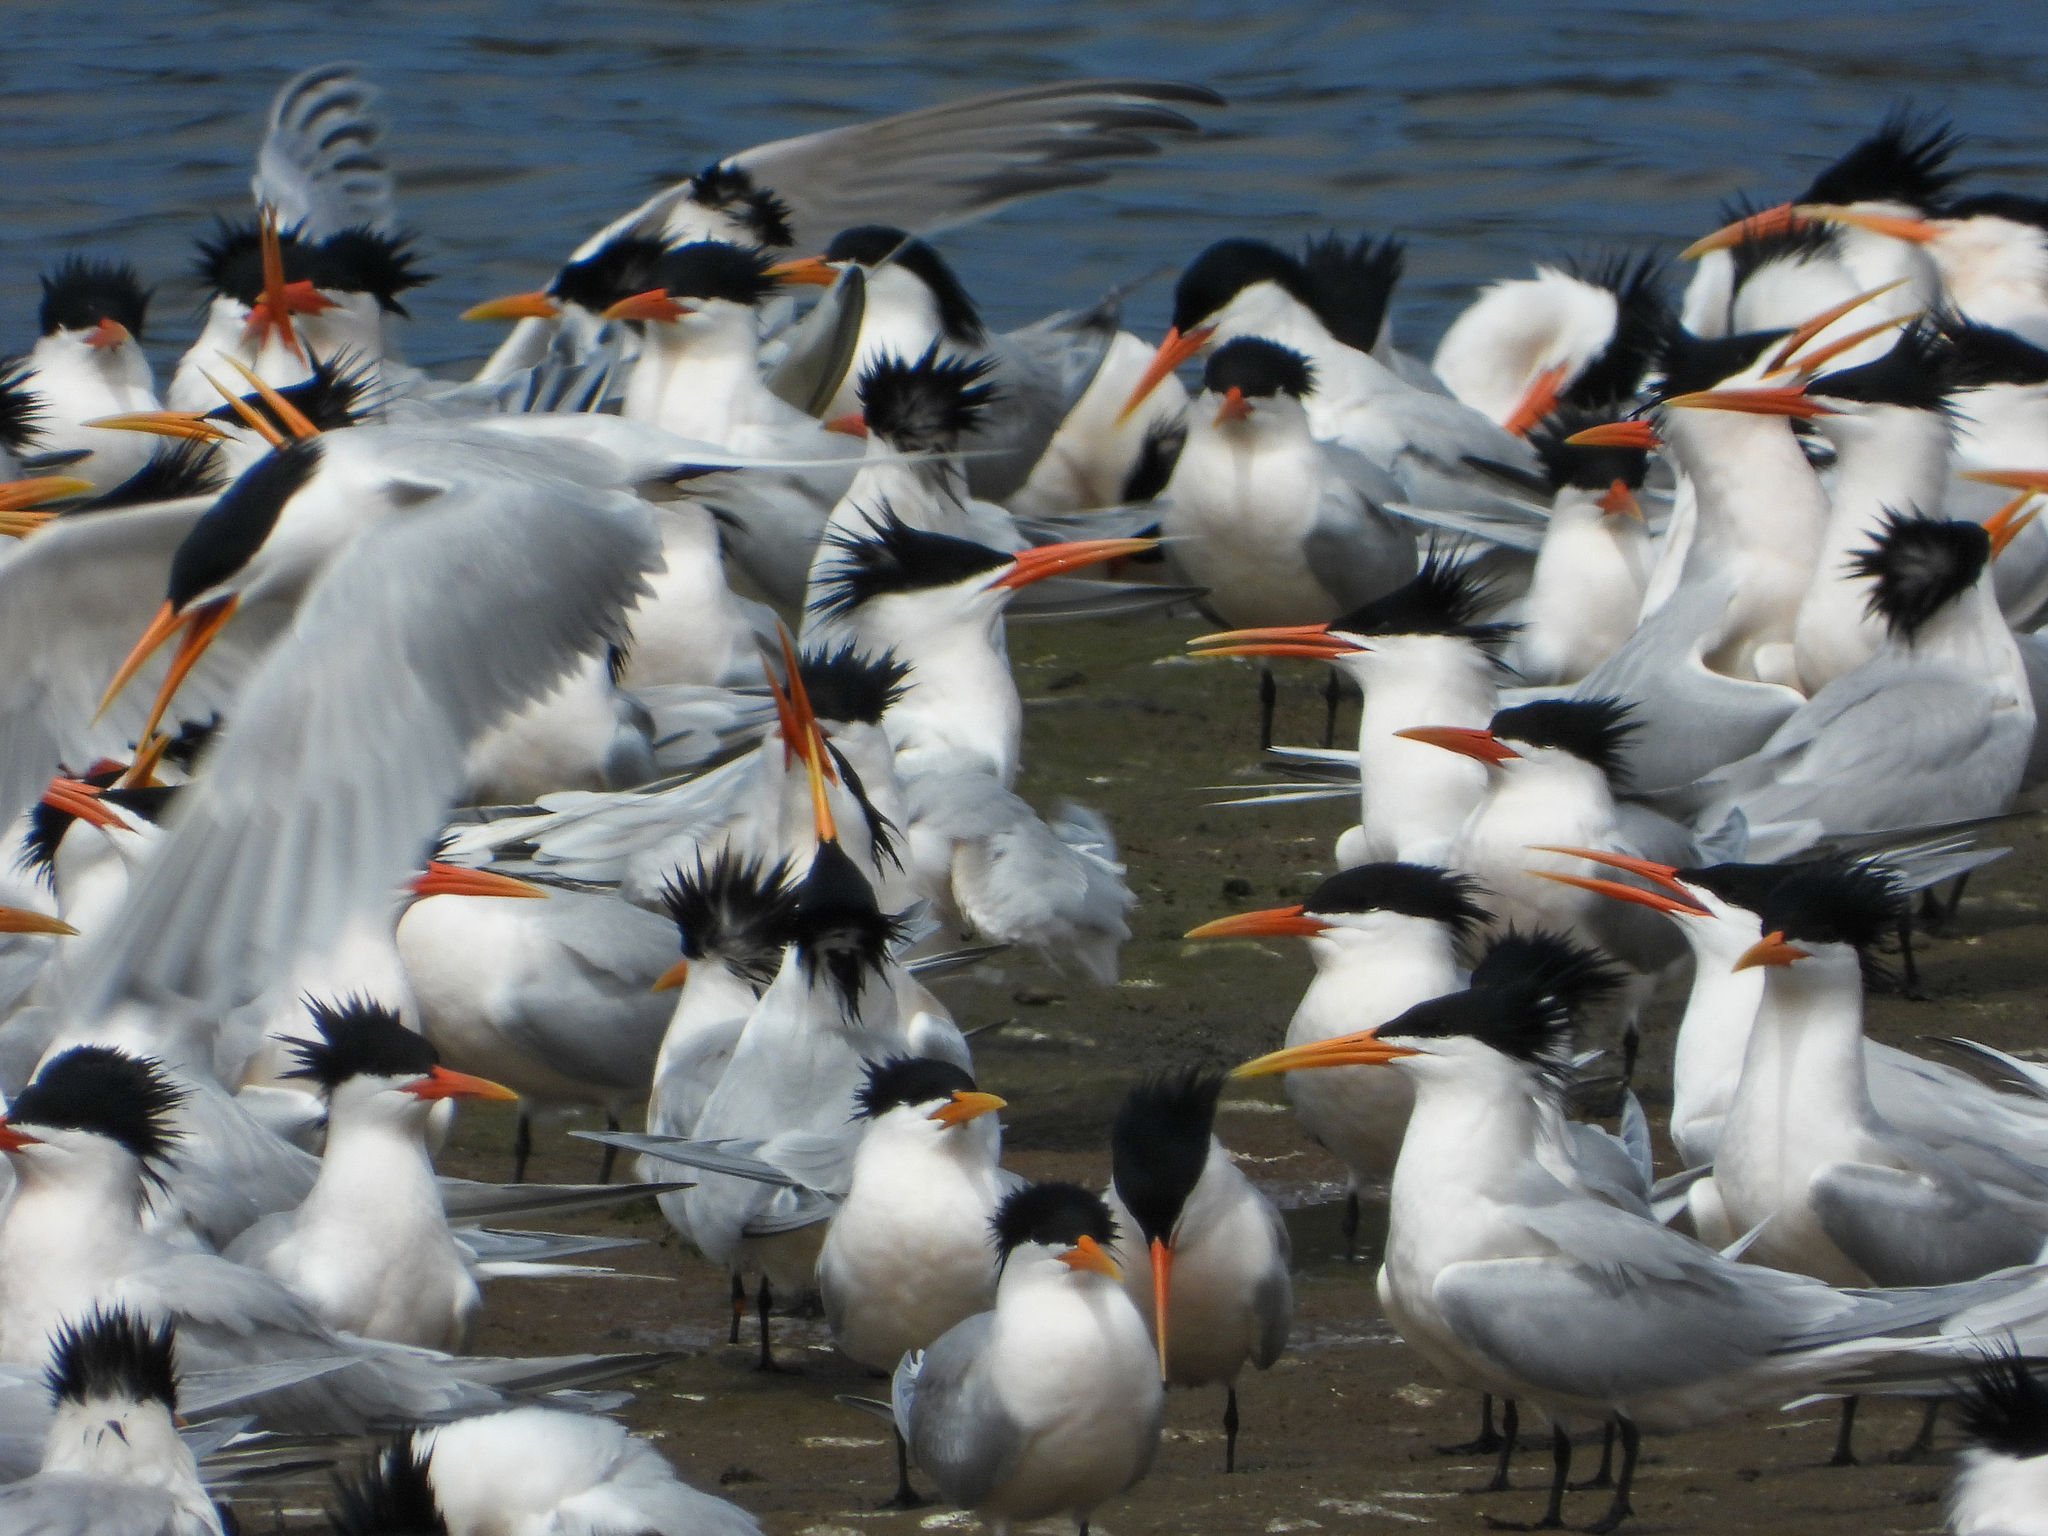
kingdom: Animalia
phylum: Chordata
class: Aves
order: Charadriiformes
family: Laridae
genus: Thalasseus
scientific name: Thalasseus elegans
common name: Elegant tern
